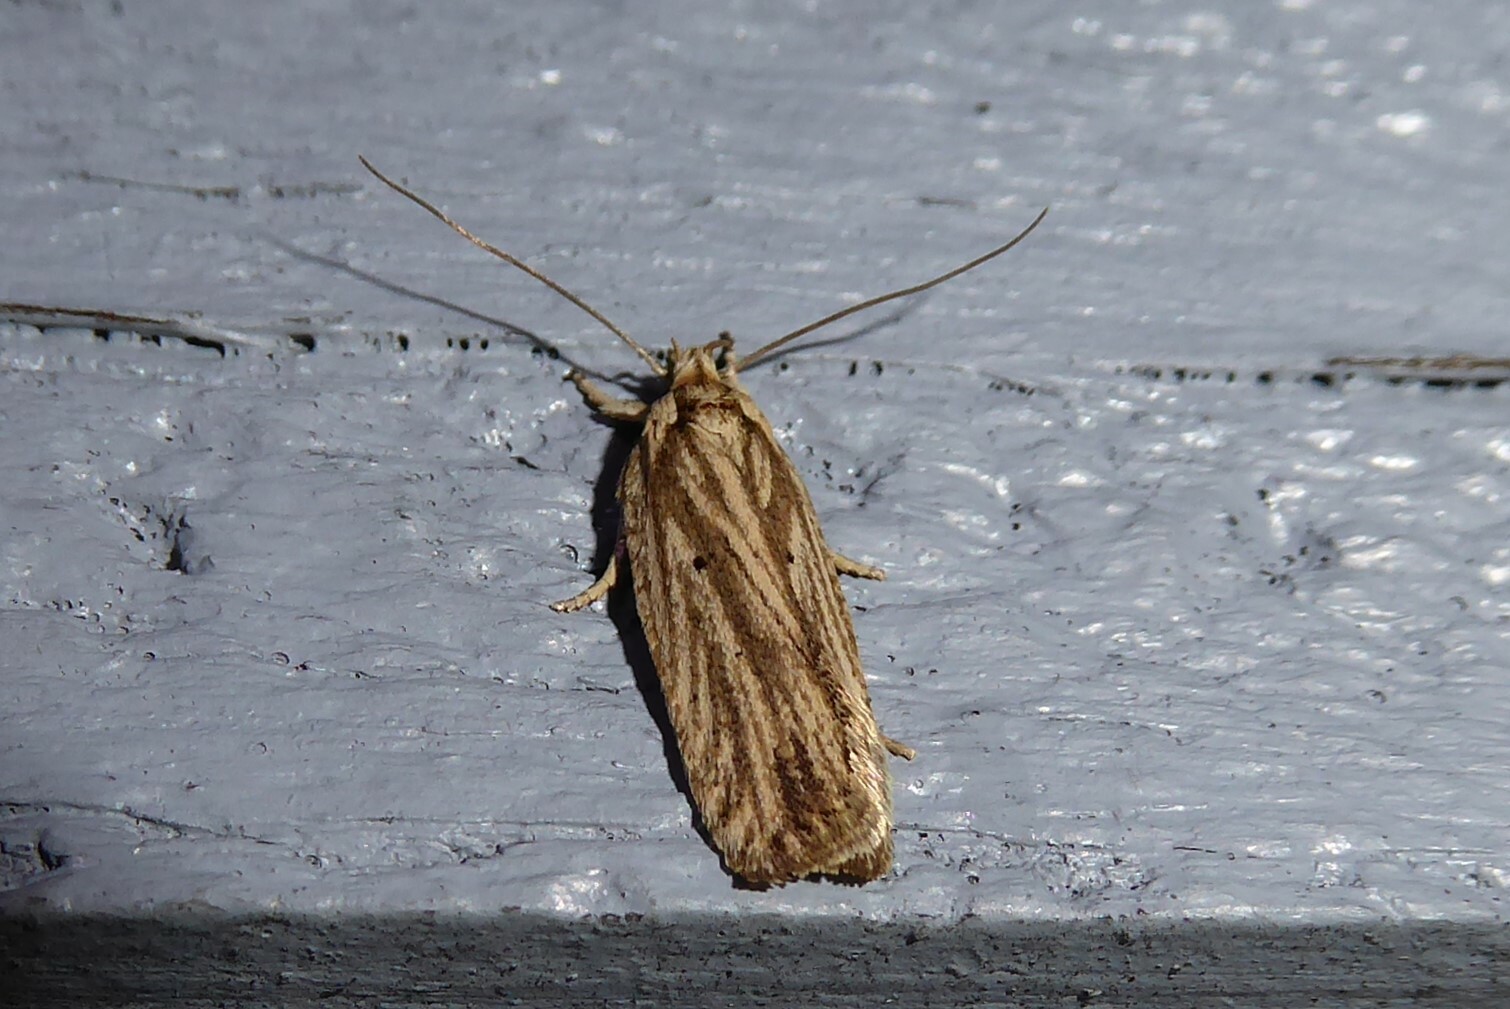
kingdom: Animalia
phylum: Arthropoda
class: Insecta
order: Lepidoptera
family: Depressariidae
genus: Agonopterix
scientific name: Agonopterix
